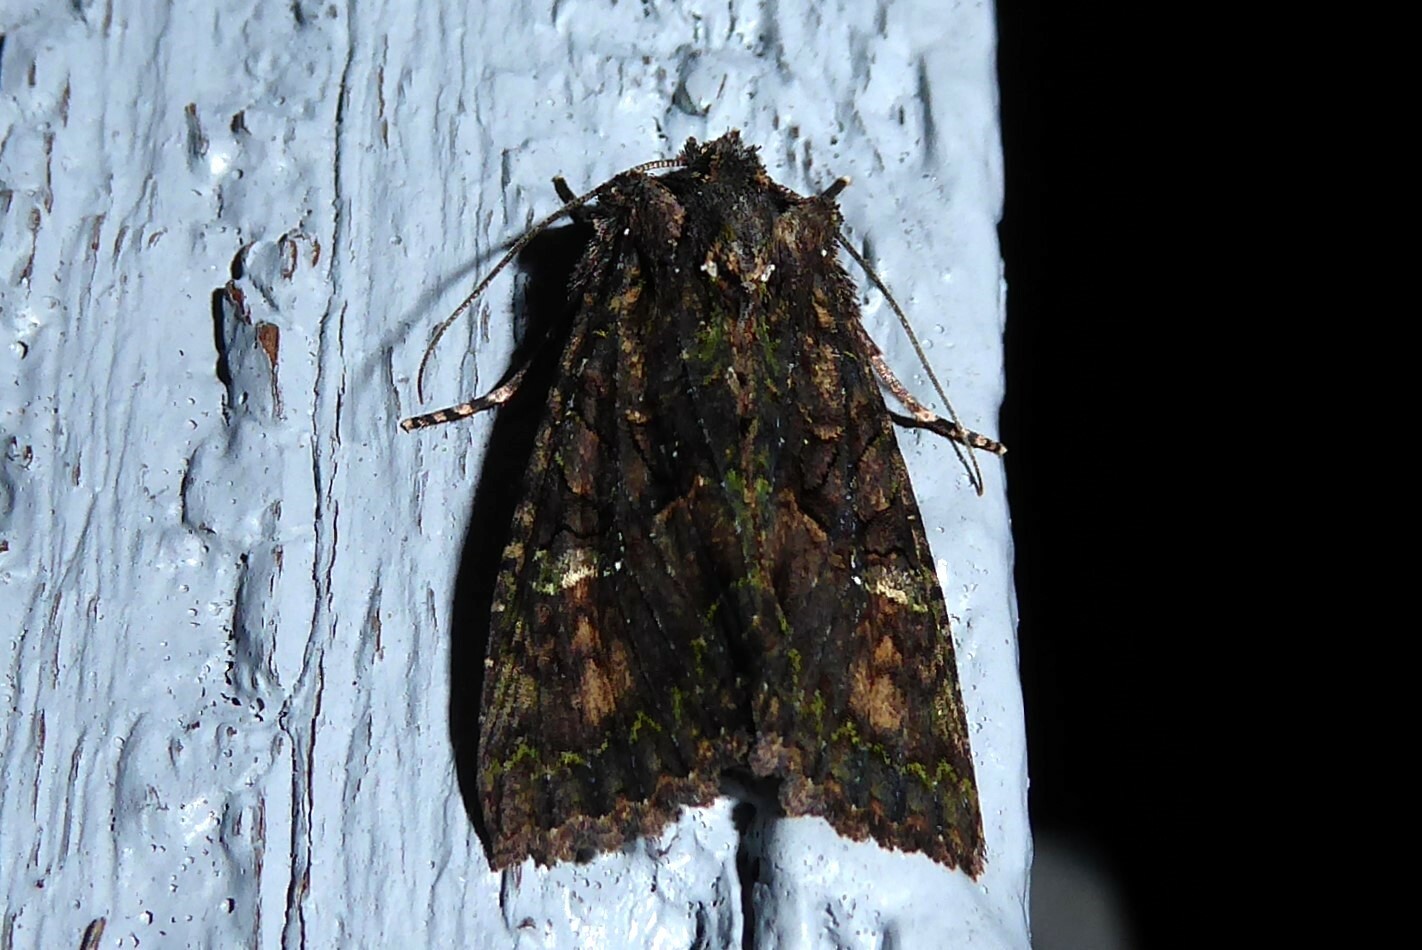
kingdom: Animalia
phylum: Arthropoda
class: Insecta
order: Lepidoptera
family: Noctuidae
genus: Meterana
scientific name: Meterana ochthistis
